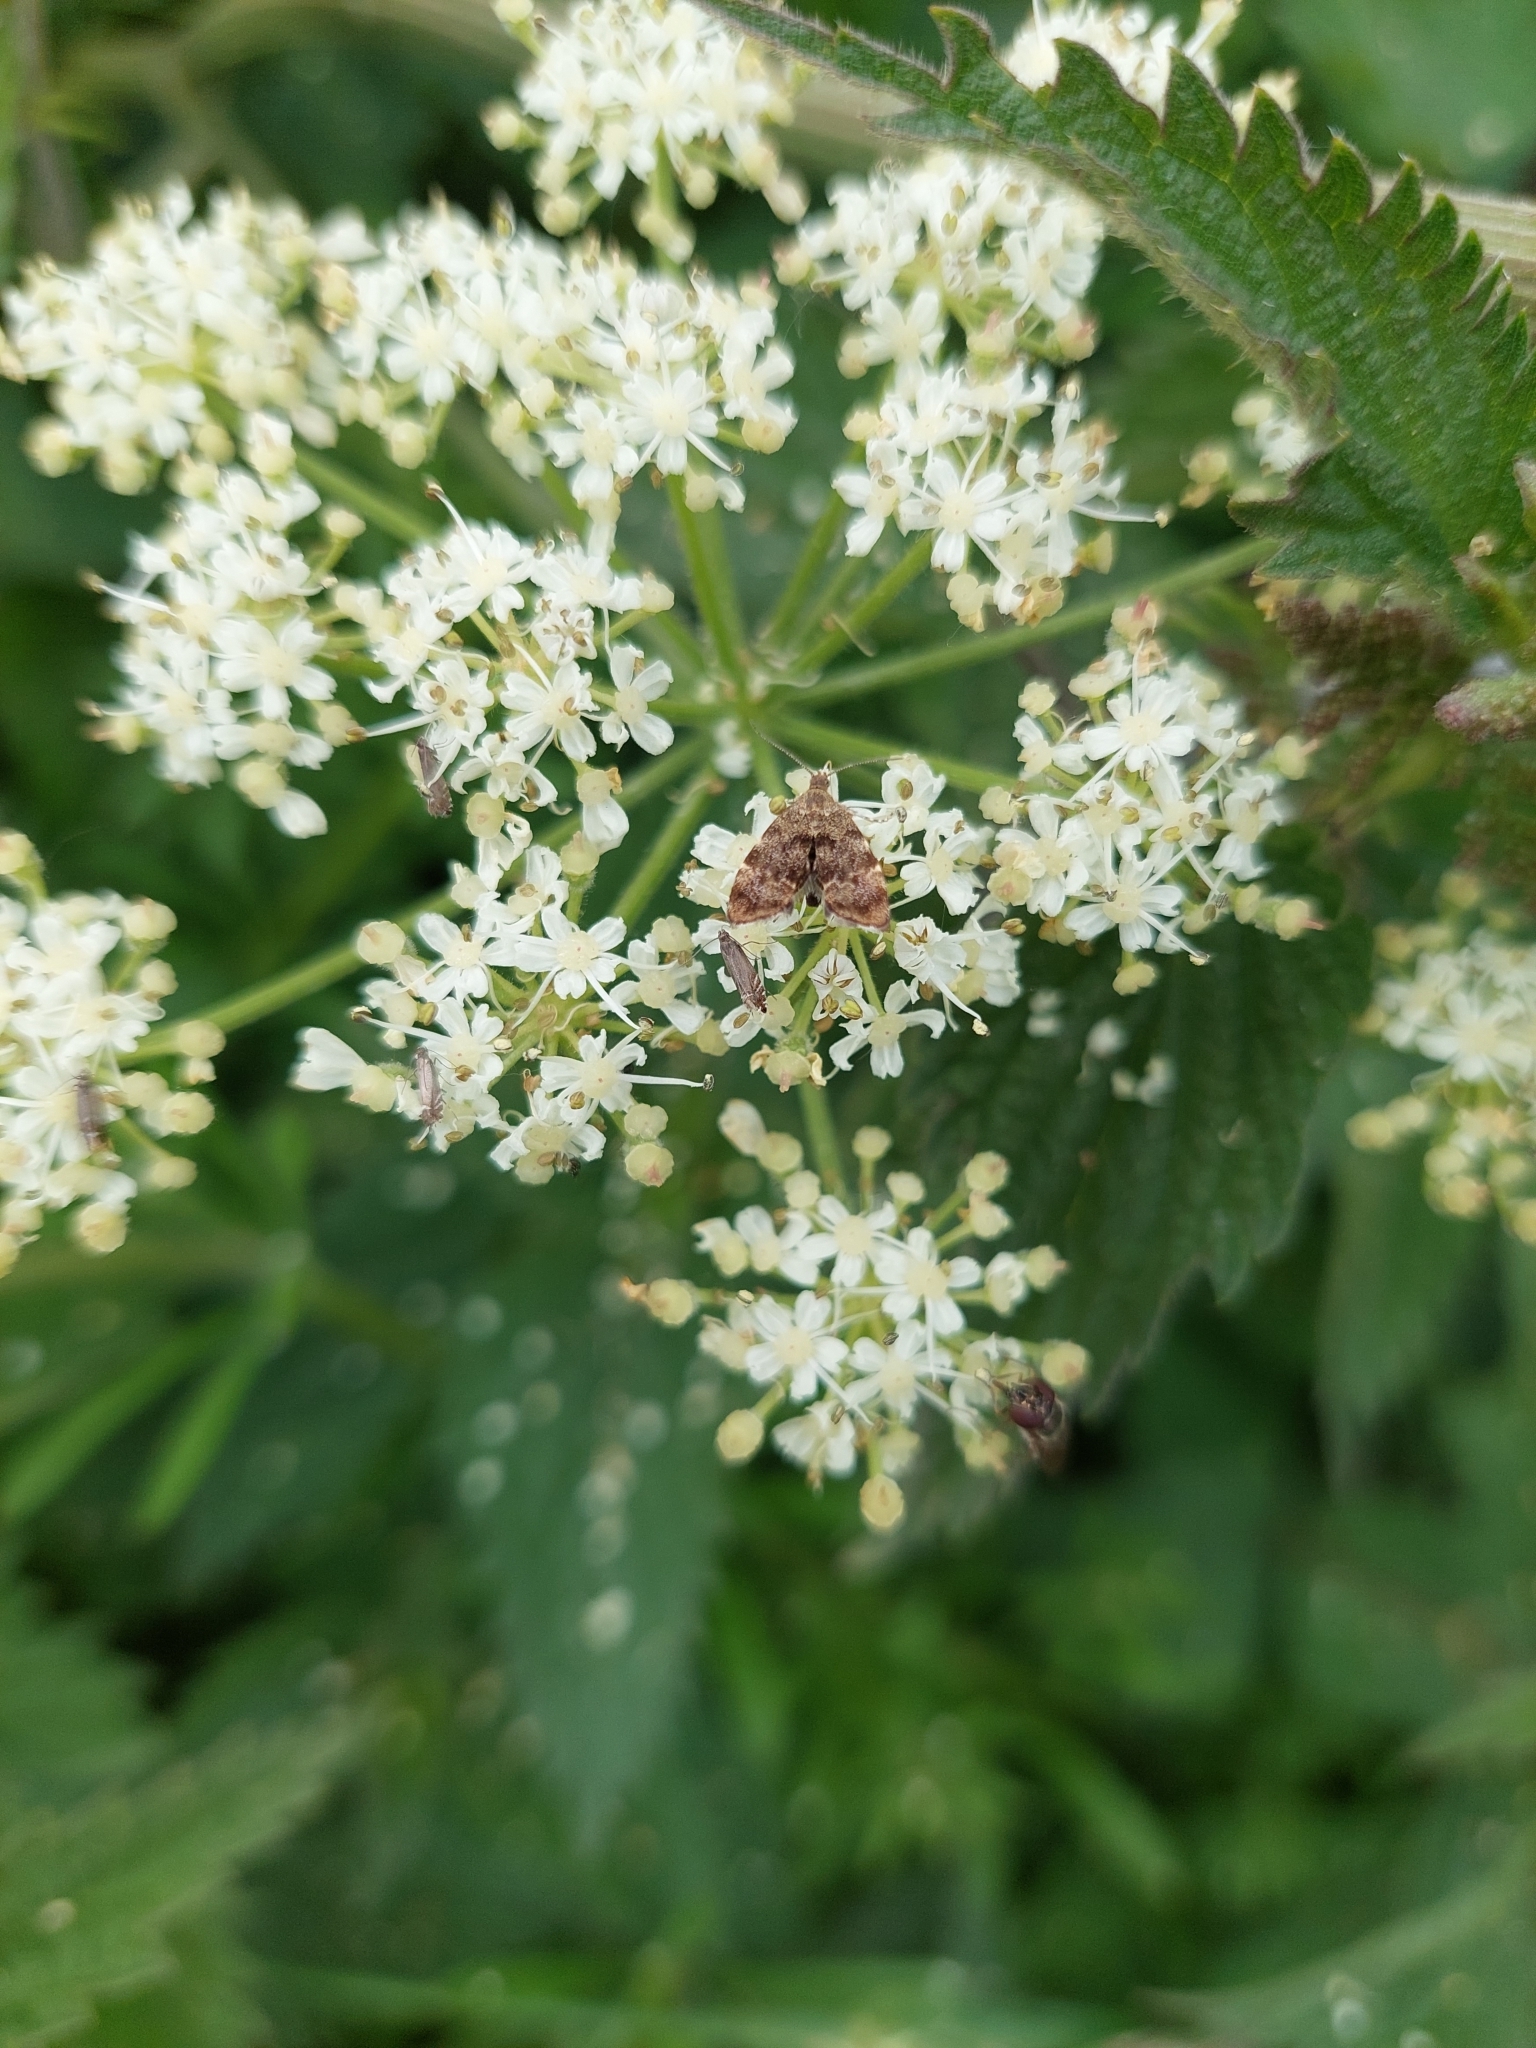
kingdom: Animalia
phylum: Arthropoda
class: Insecta
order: Lepidoptera
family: Choreutidae
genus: Anthophila
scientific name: Anthophila fabriciana
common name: Nettle-tap
